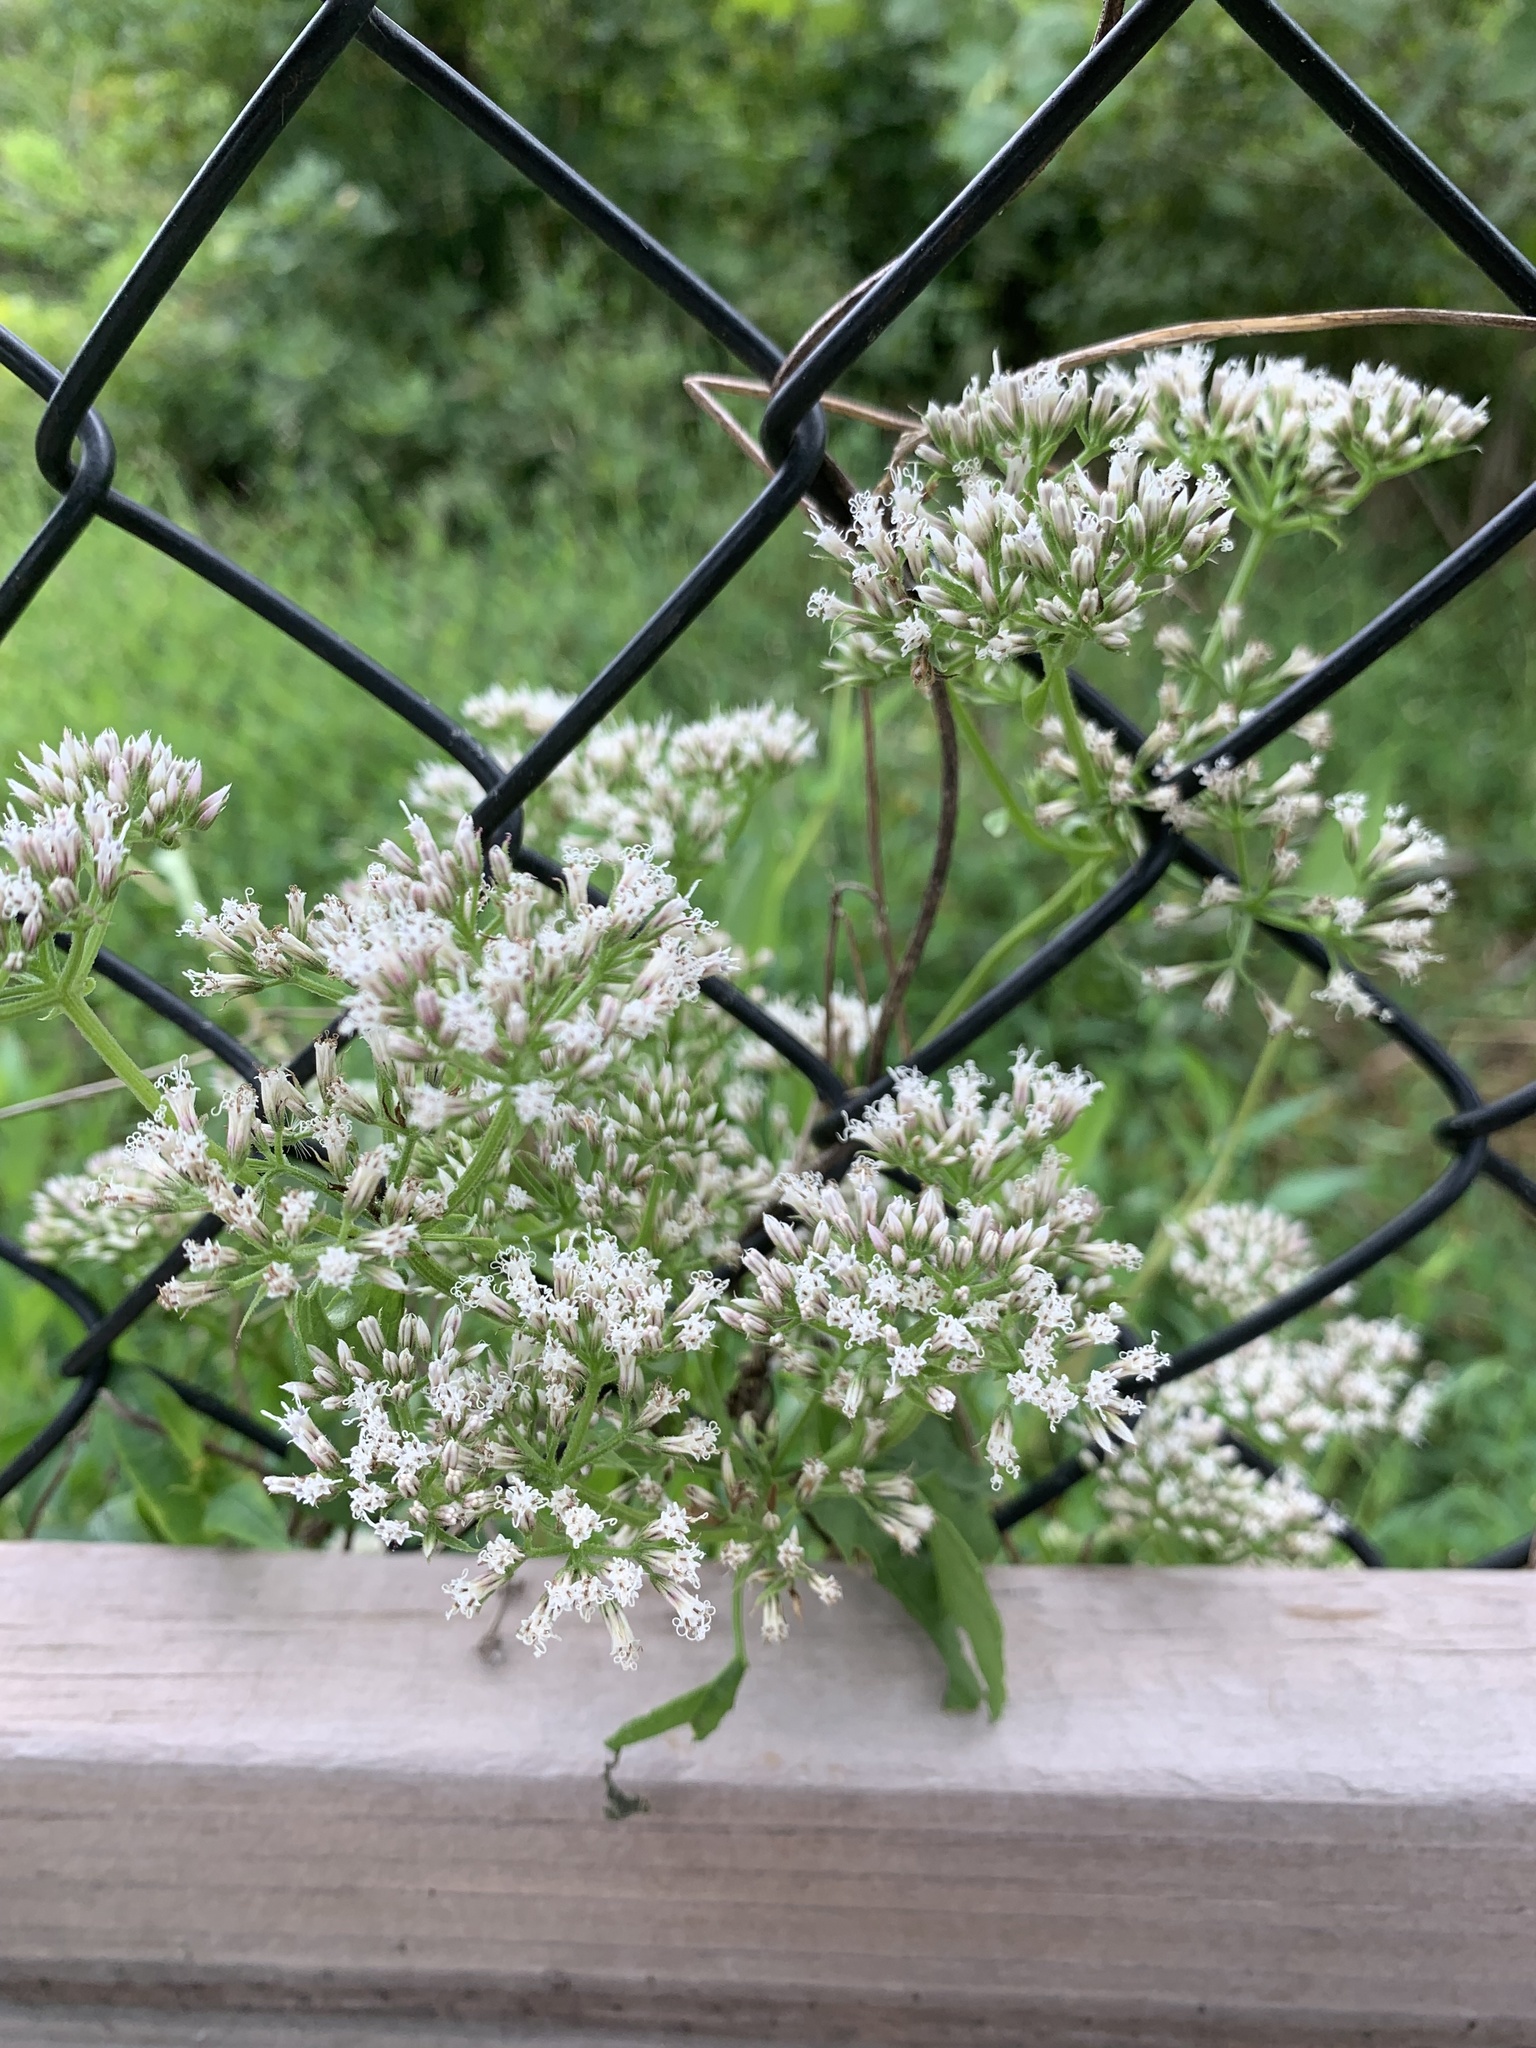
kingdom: Plantae
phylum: Tracheophyta
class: Magnoliopsida
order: Asterales
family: Asteraceae
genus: Mikania
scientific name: Mikania scandens
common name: Climbing hempvine
